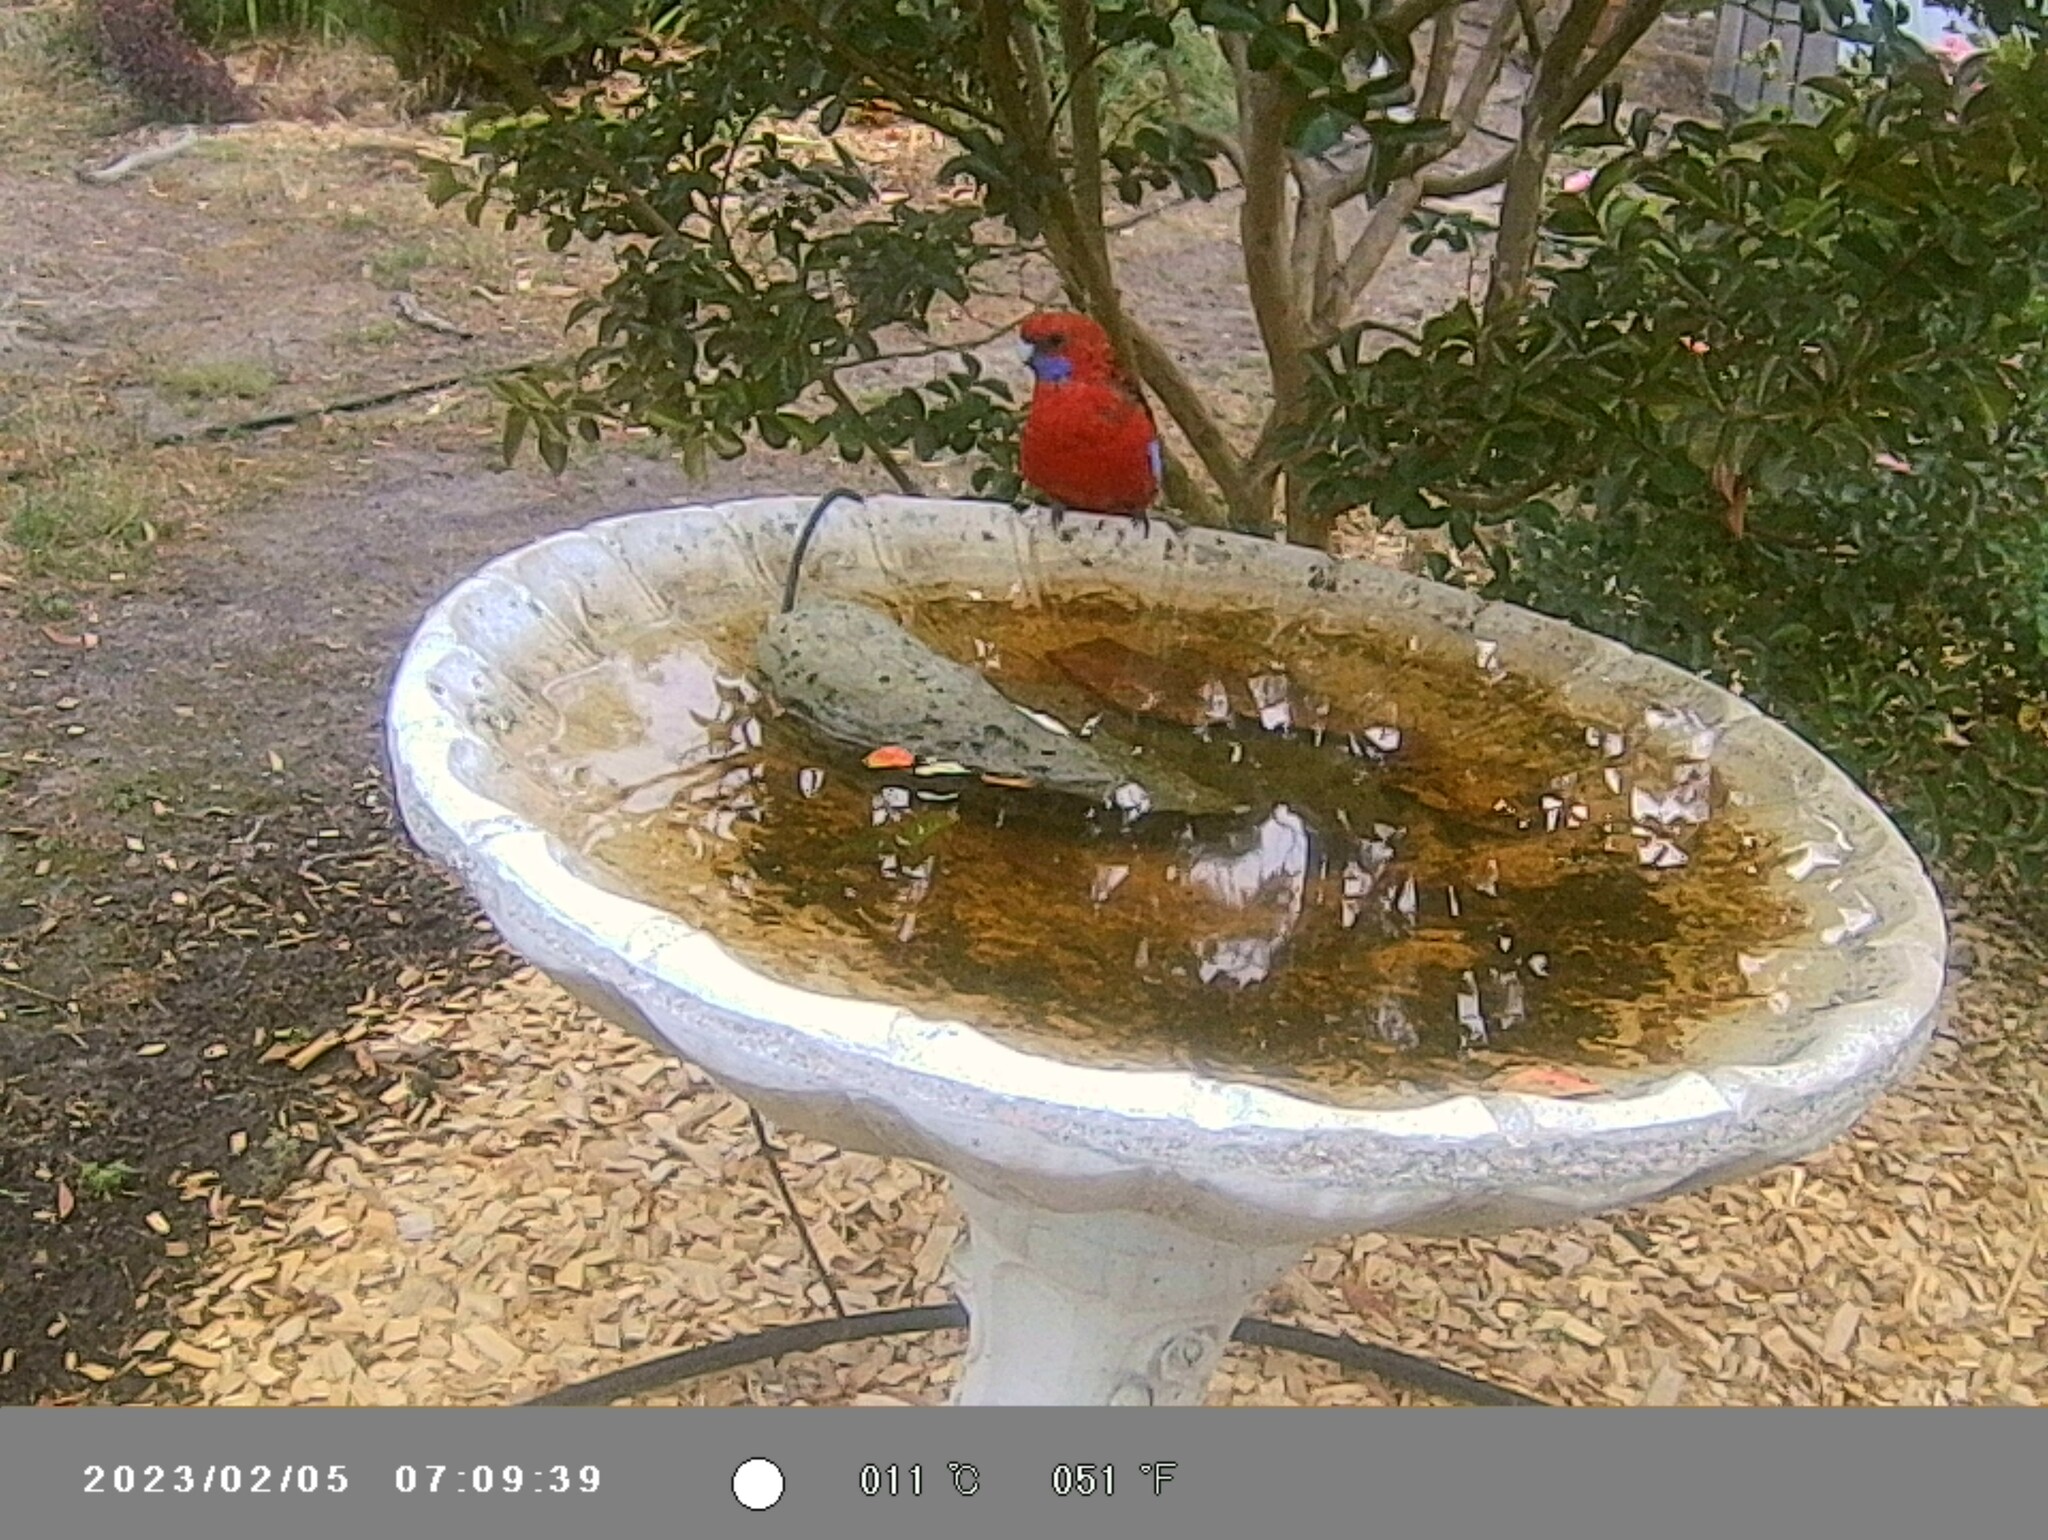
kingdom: Animalia
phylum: Chordata
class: Aves
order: Psittaciformes
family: Psittacidae
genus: Platycercus
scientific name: Platycercus elegans
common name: Crimson rosella
